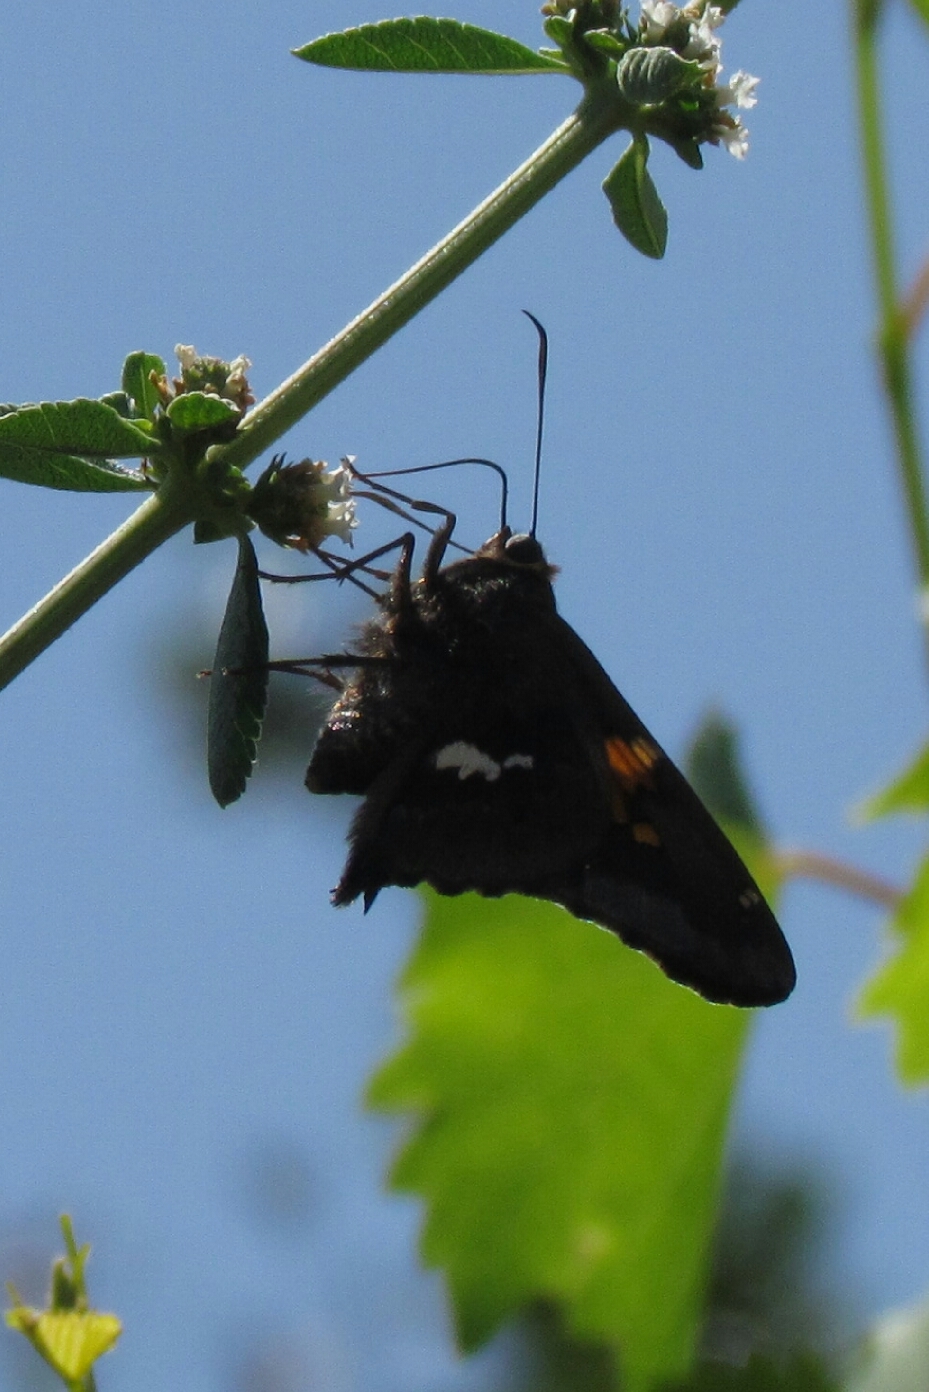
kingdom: Animalia
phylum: Arthropoda
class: Insecta
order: Lepidoptera
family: Hesperiidae
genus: Epargyreus
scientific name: Epargyreus tmolis
